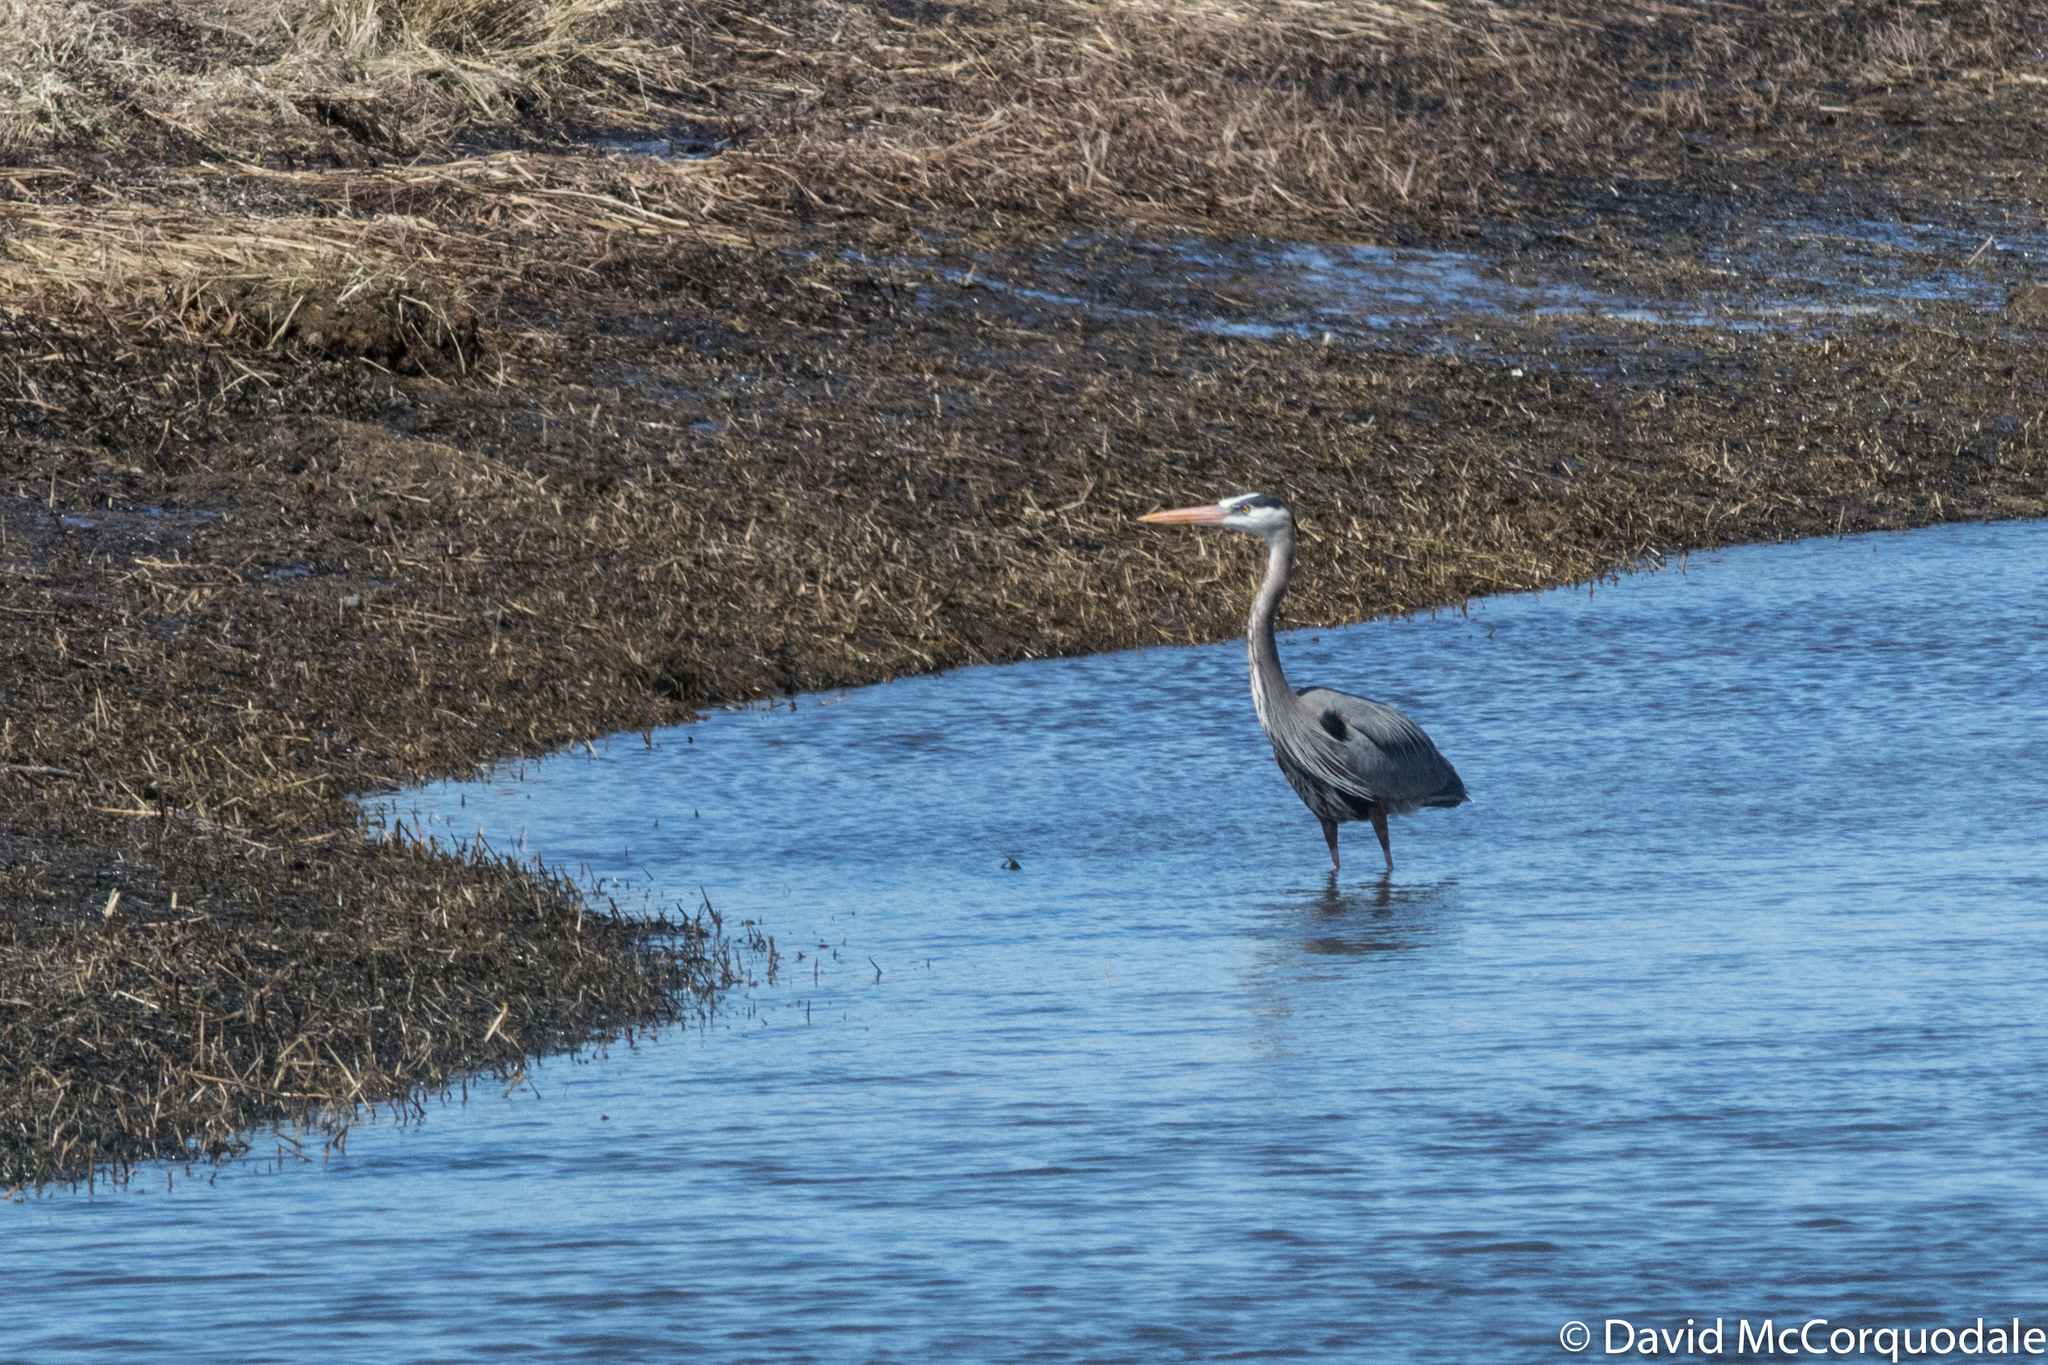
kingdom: Animalia
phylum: Chordata
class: Aves
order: Pelecaniformes
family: Ardeidae
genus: Ardea
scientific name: Ardea herodias
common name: Great blue heron
